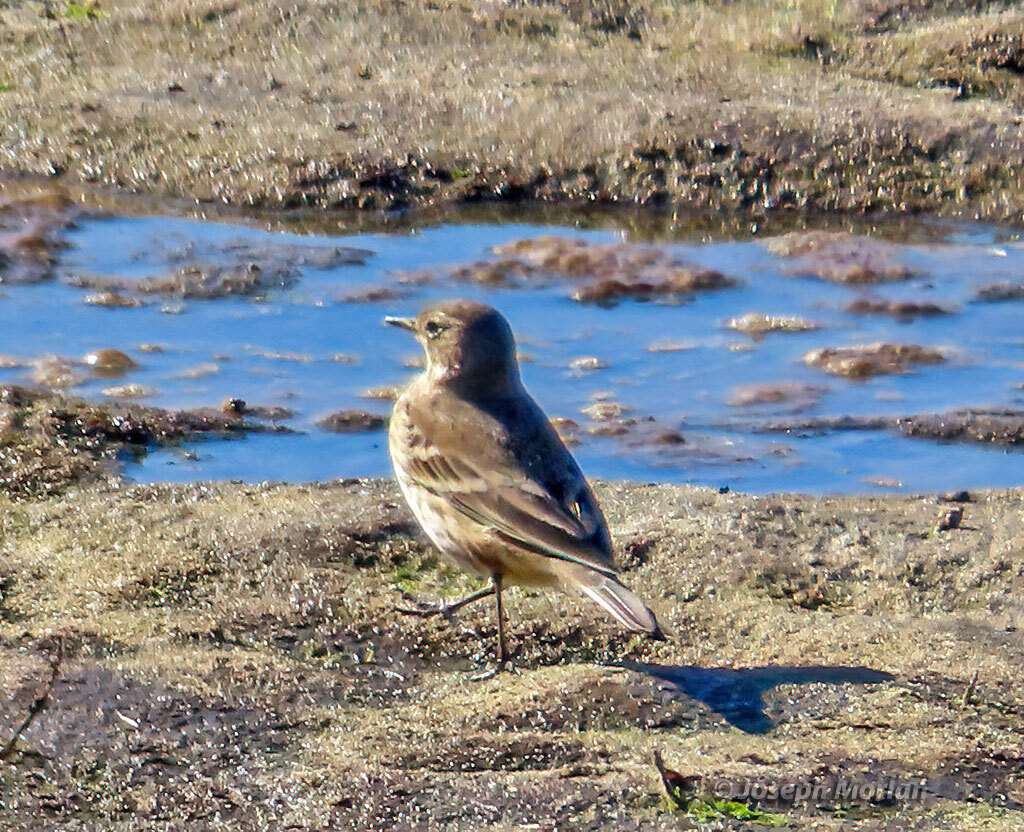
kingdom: Animalia
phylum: Chordata
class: Aves
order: Passeriformes
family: Motacillidae
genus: Anthus
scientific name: Anthus rubescens
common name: Buff-bellied pipit
